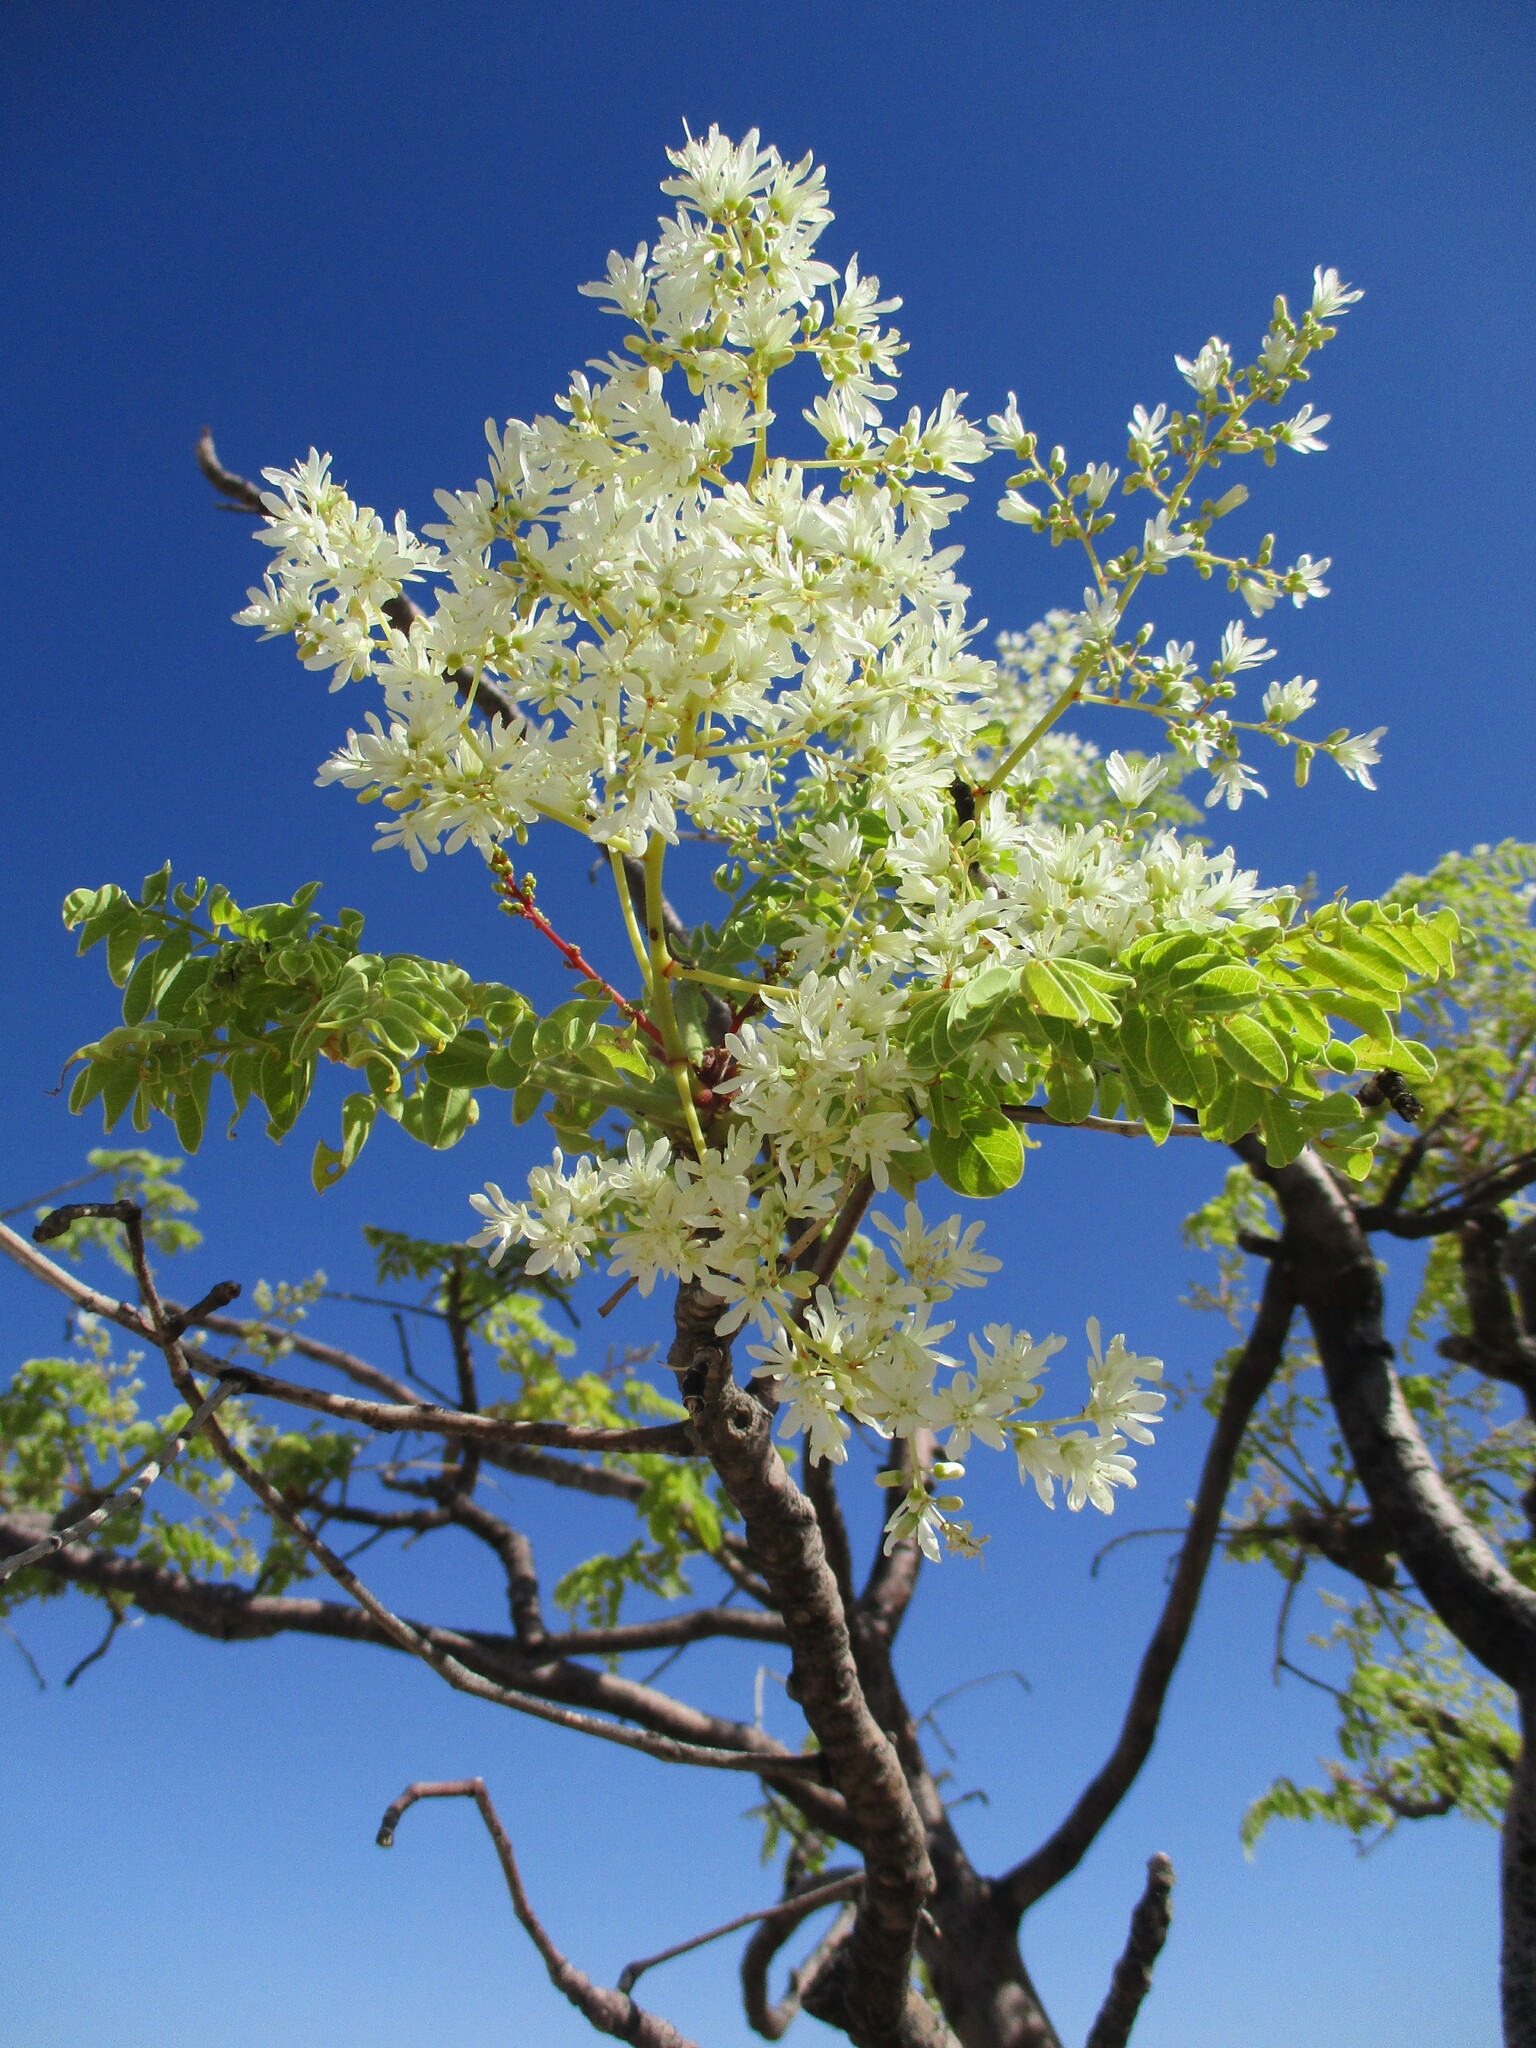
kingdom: Plantae
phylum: Tracheophyta
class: Magnoliopsida
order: Brassicales
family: Moringaceae
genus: Moringa
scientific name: Moringa ovalifolia
